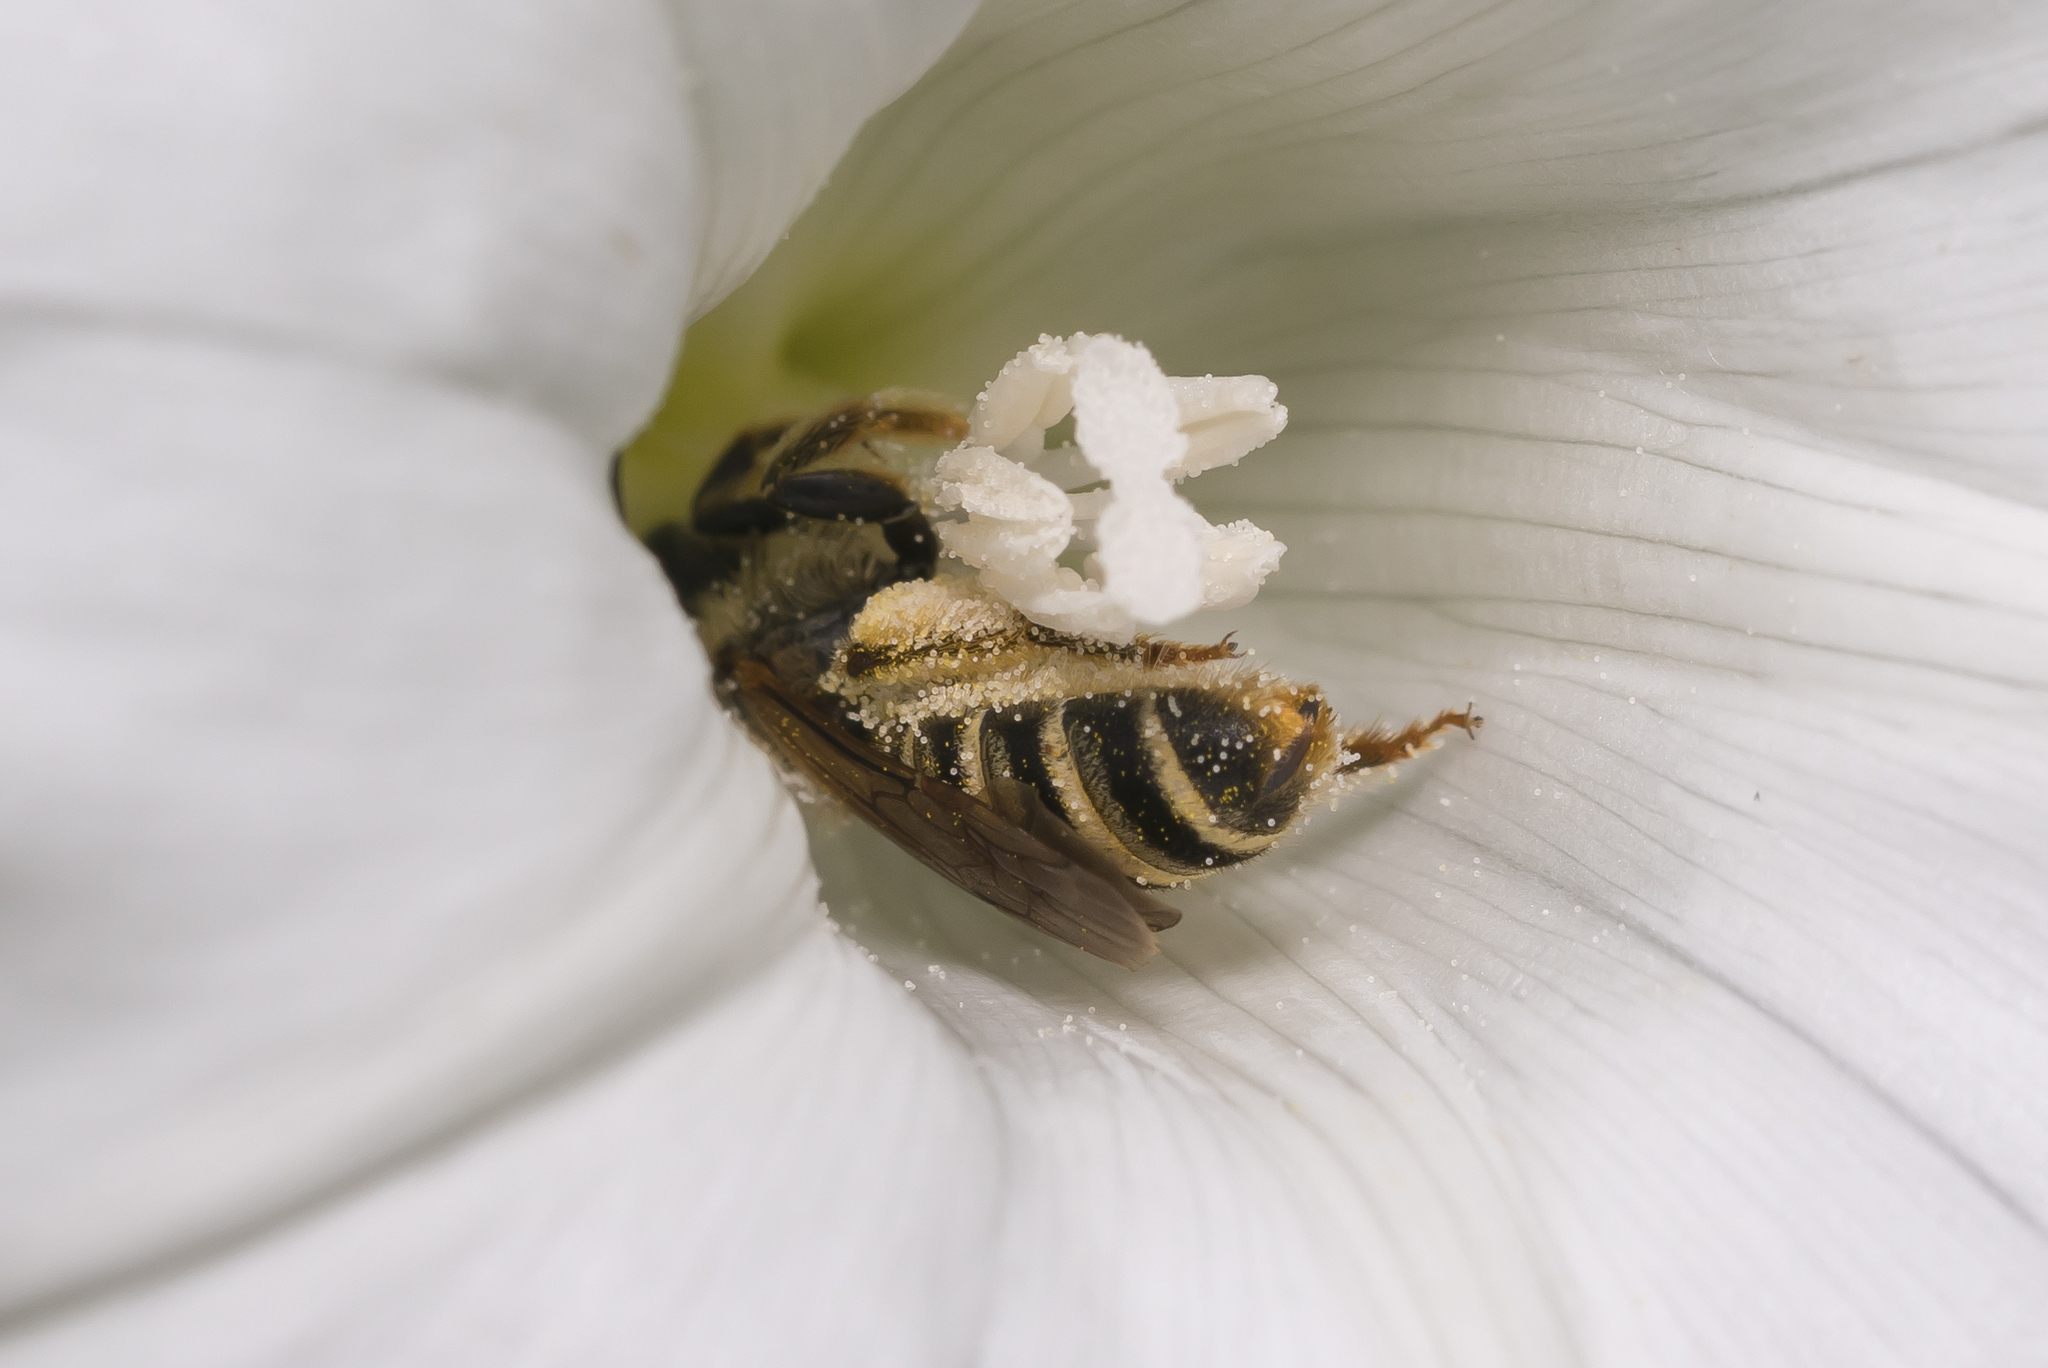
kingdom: Animalia
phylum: Arthropoda
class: Insecta
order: Hymenoptera
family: Halictidae
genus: Halictus
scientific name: Halictus scabiosae
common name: Great banded furrow bee
